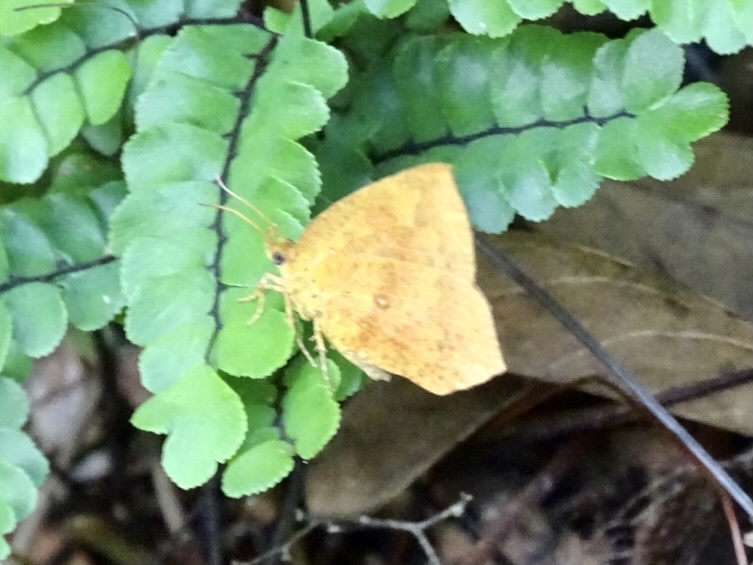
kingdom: Animalia
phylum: Arthropoda
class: Insecta
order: Lepidoptera
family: Callidulidae
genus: Tetragonus
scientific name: Tetragonus catamitus
